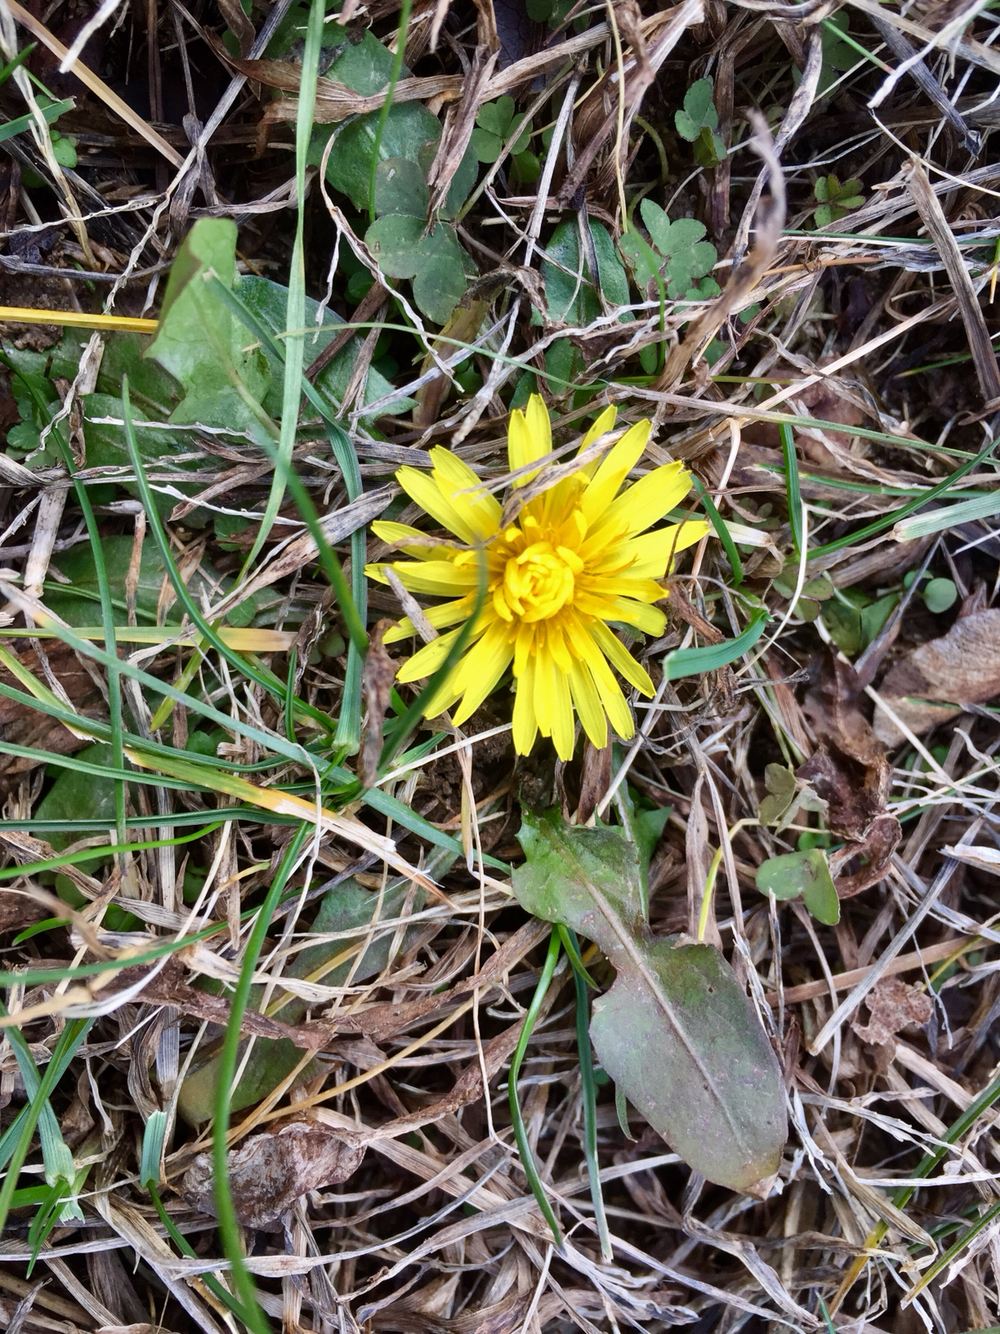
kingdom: Plantae
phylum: Tracheophyta
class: Magnoliopsida
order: Asterales
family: Asteraceae
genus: Taraxacum
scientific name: Taraxacum officinale
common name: Common dandelion
